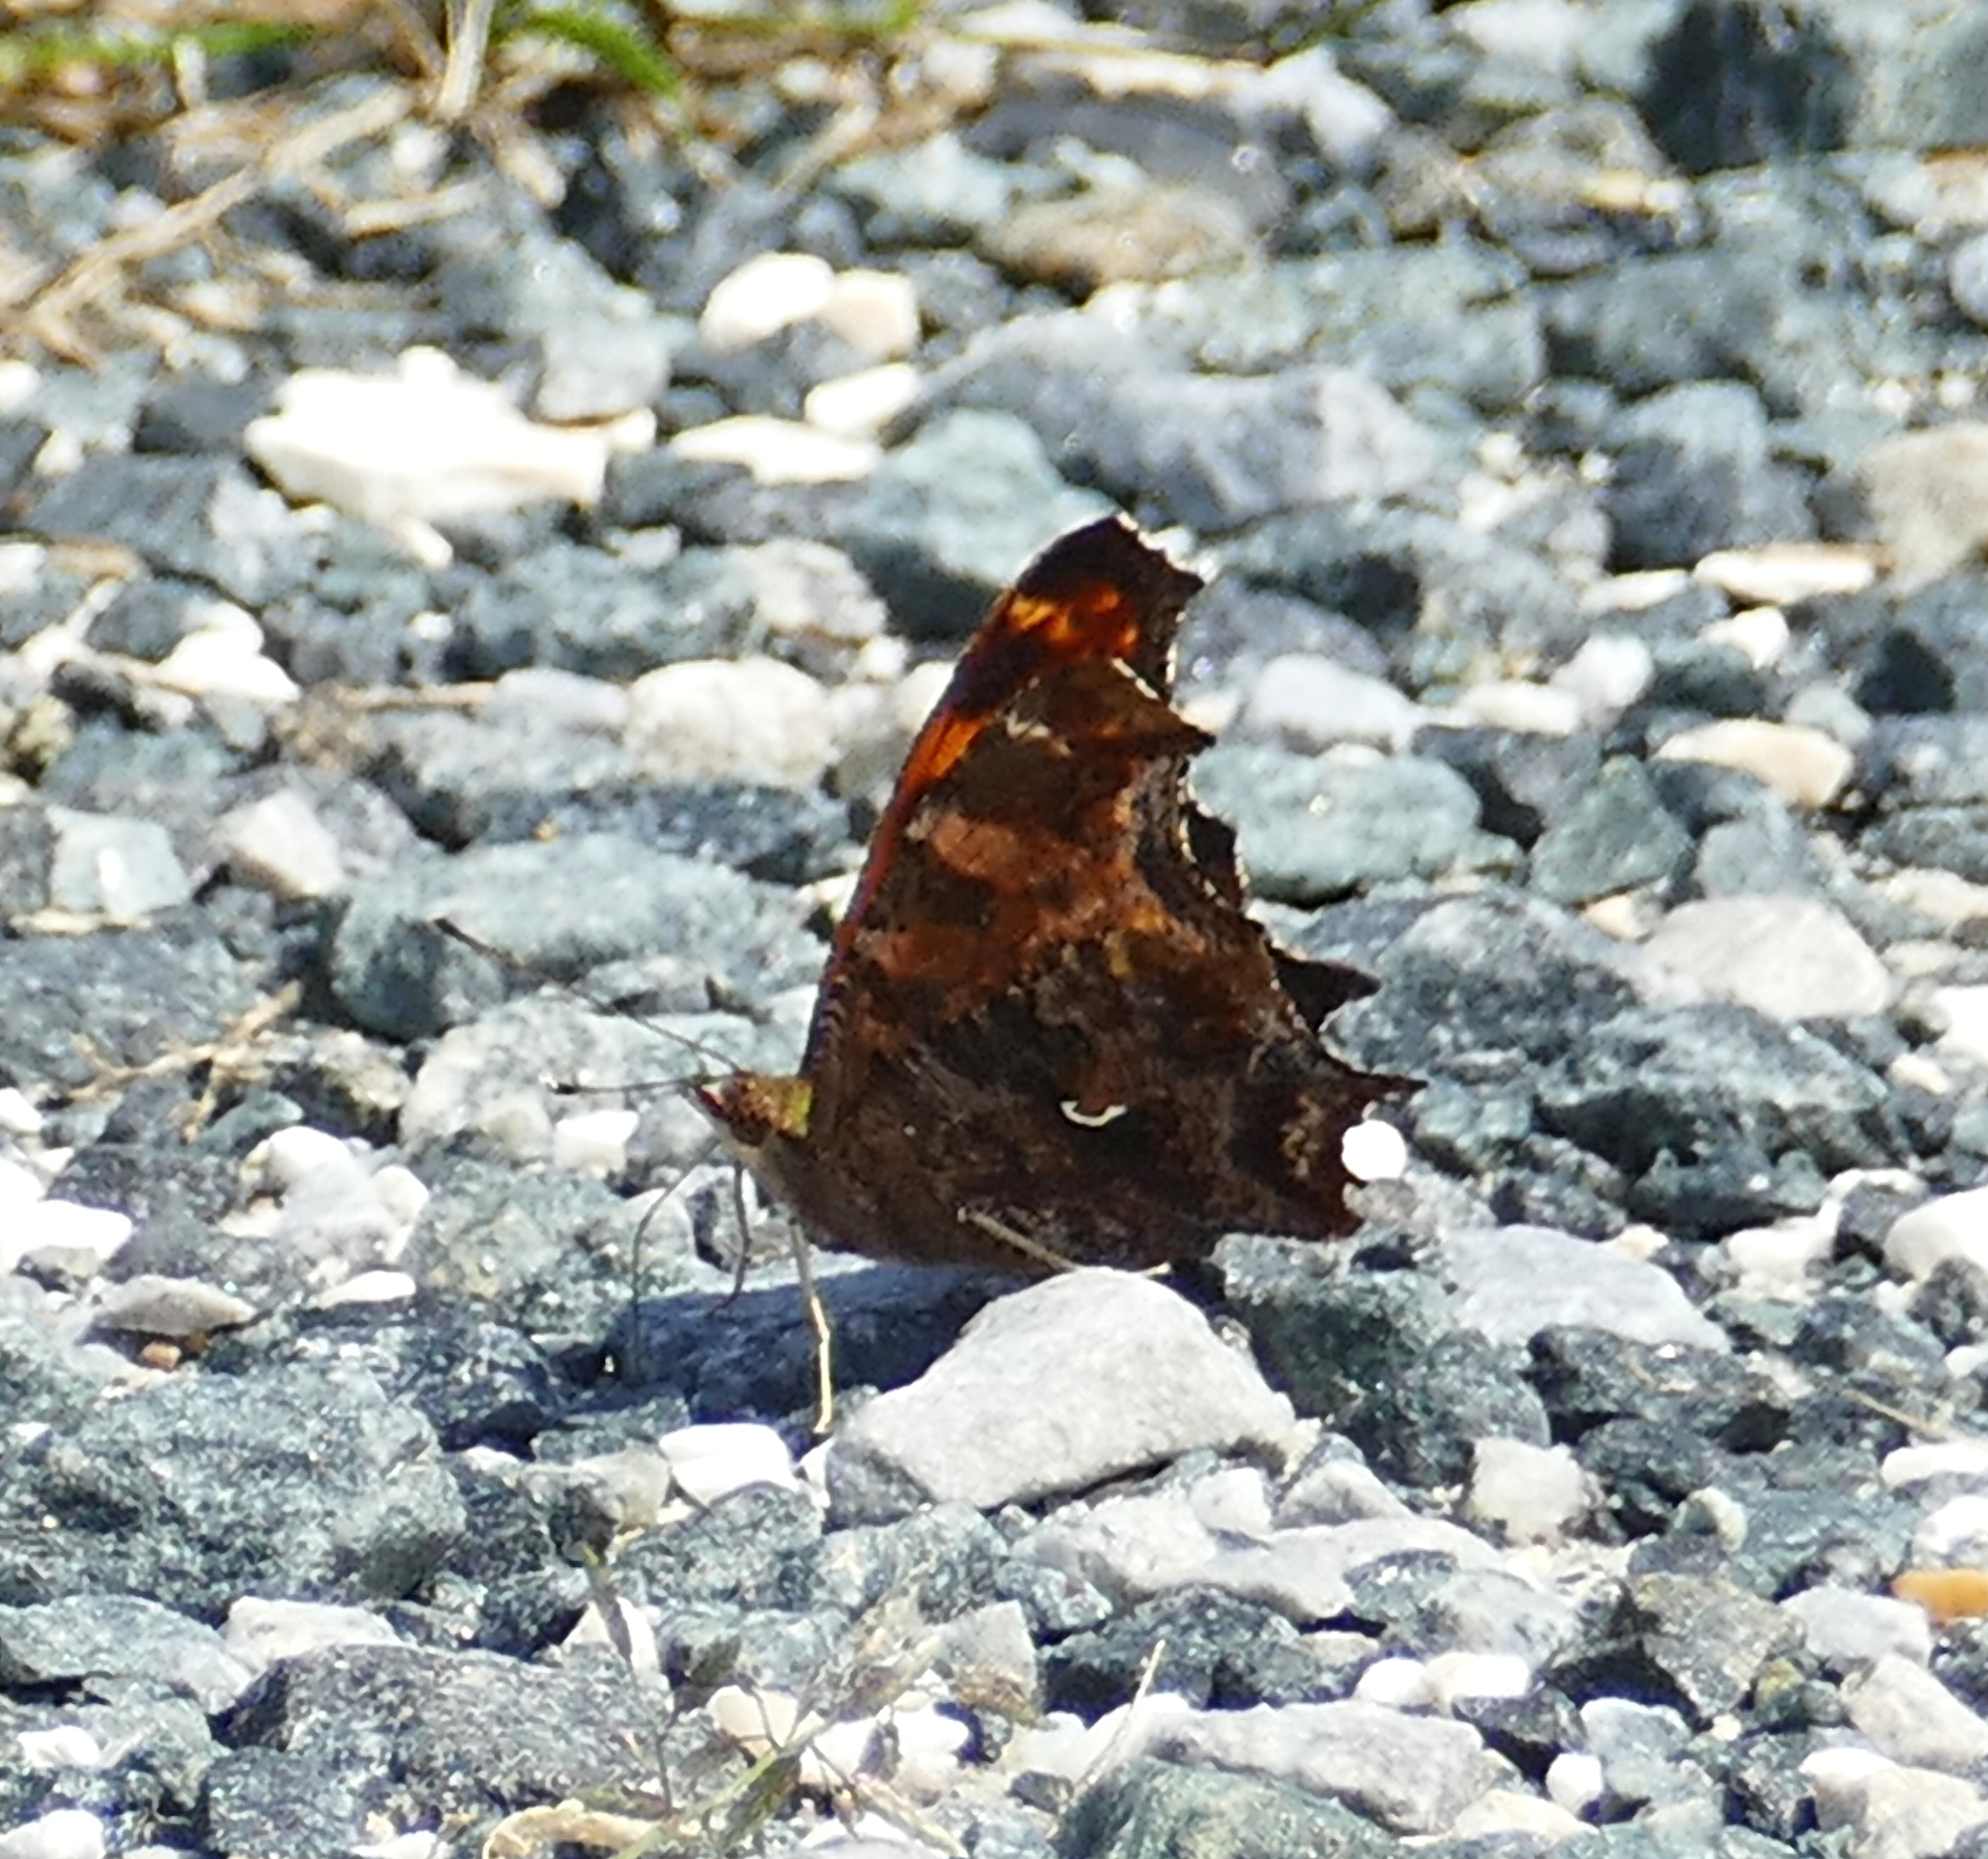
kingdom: Animalia
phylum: Arthropoda
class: Insecta
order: Lepidoptera
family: Nymphalidae
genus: Polygonia
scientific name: Polygonia comma
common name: Eastern comma
